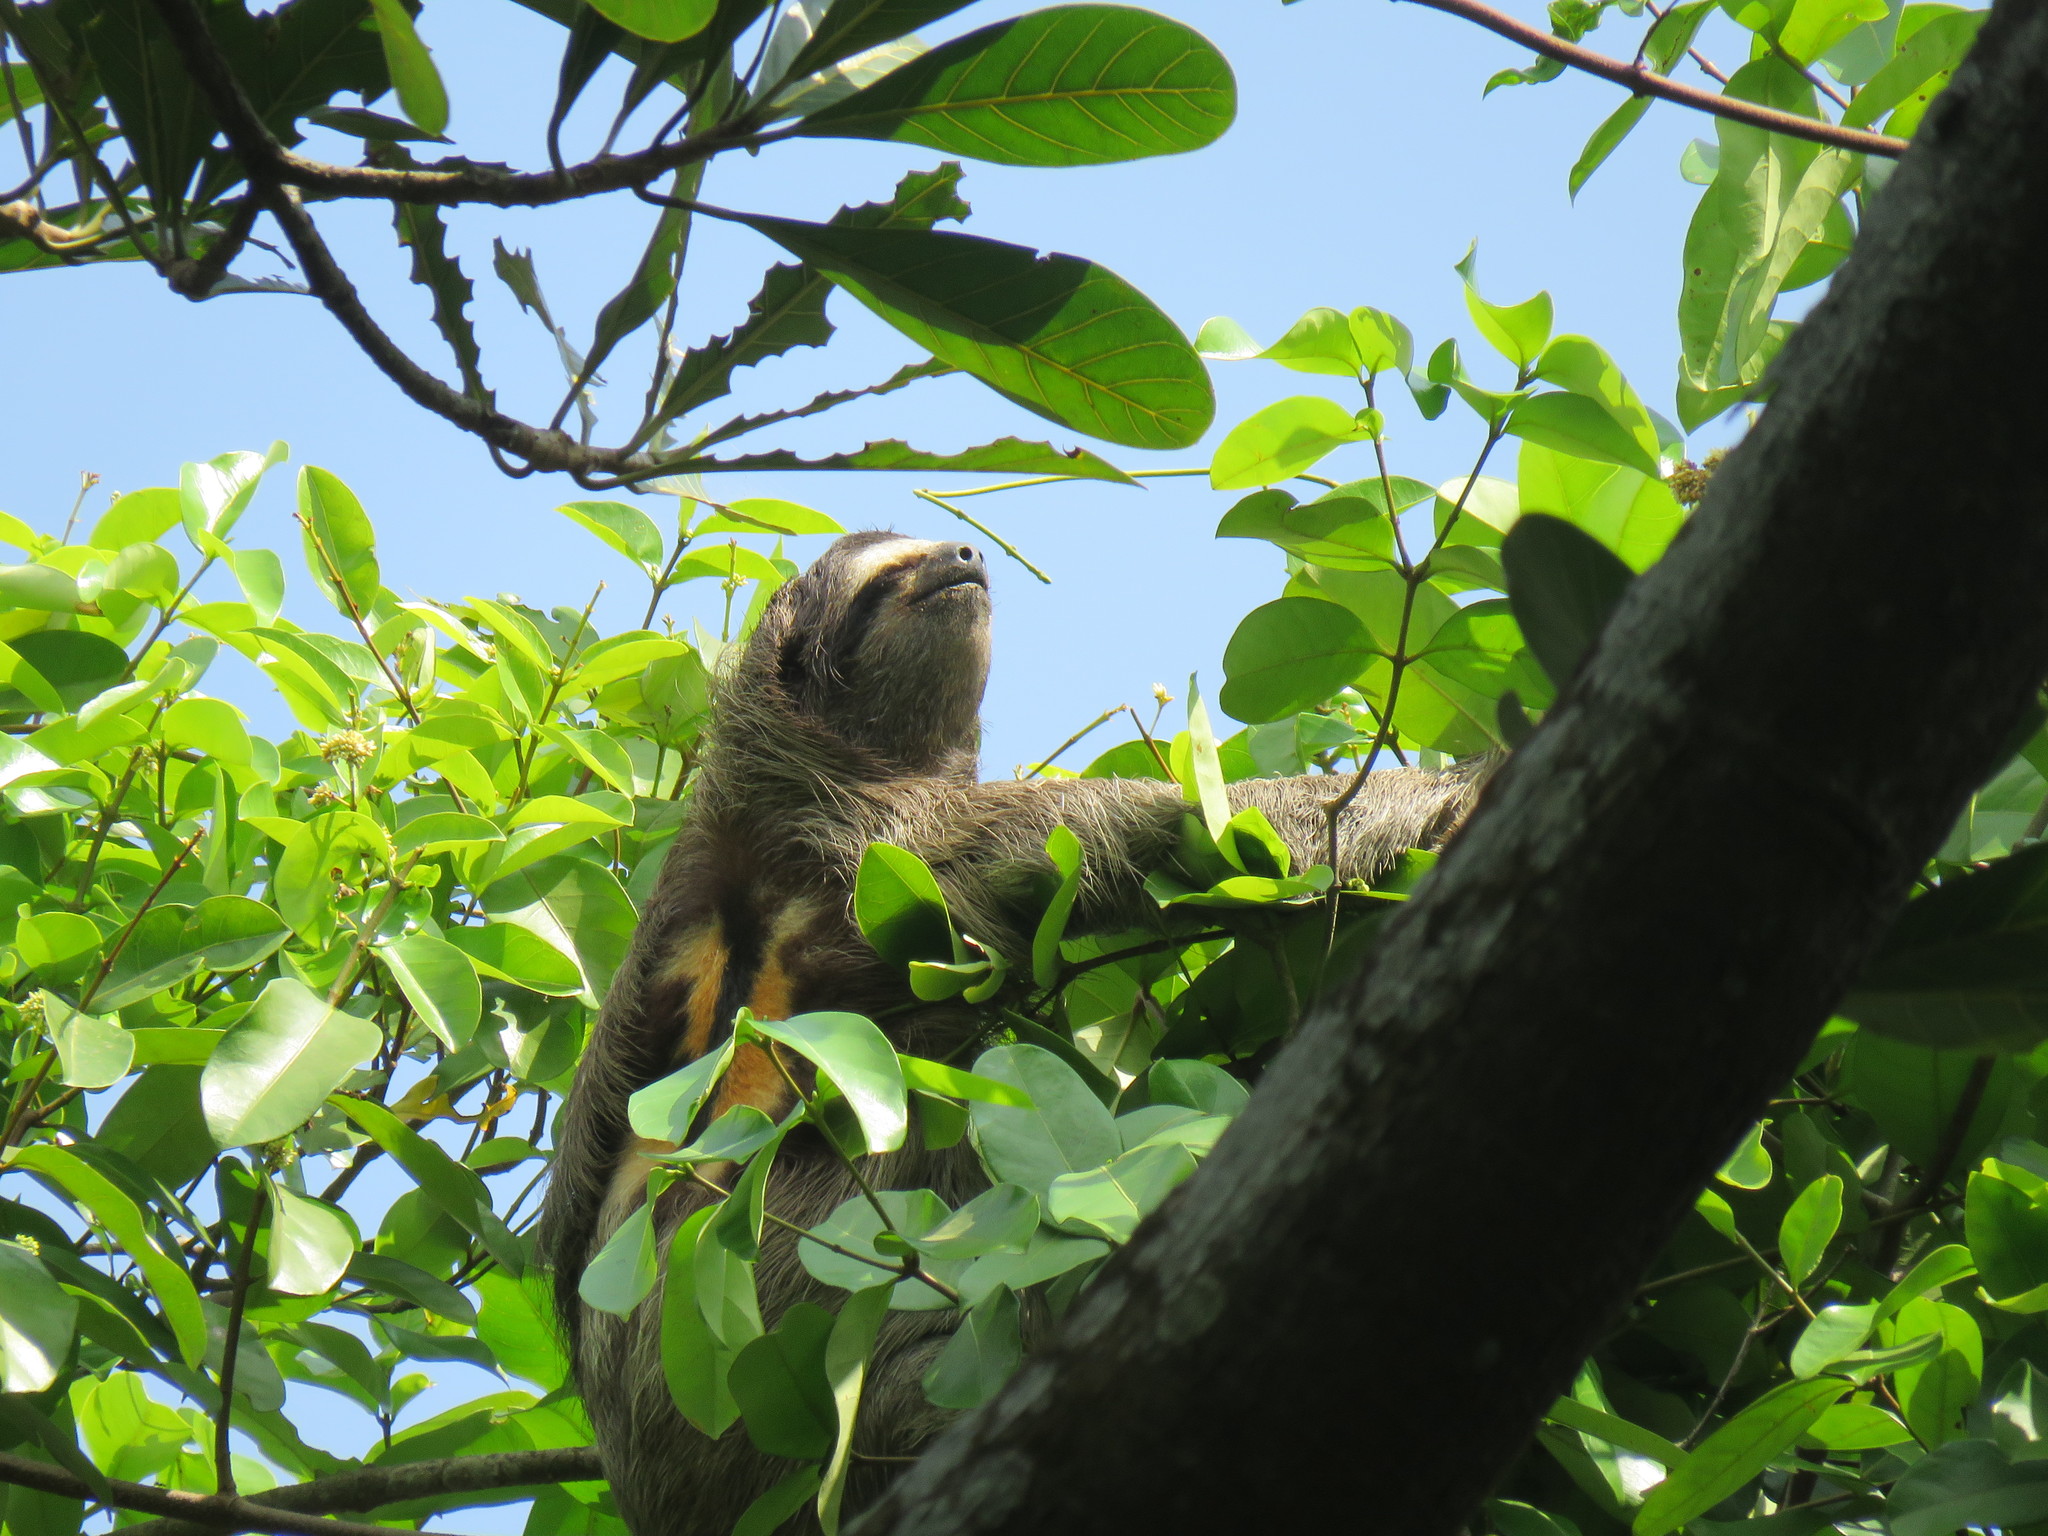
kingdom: Animalia
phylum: Chordata
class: Mammalia
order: Pilosa
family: Bradypodidae
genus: Bradypus
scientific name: Bradypus variegatus
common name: Brown-throated three-toed sloth
